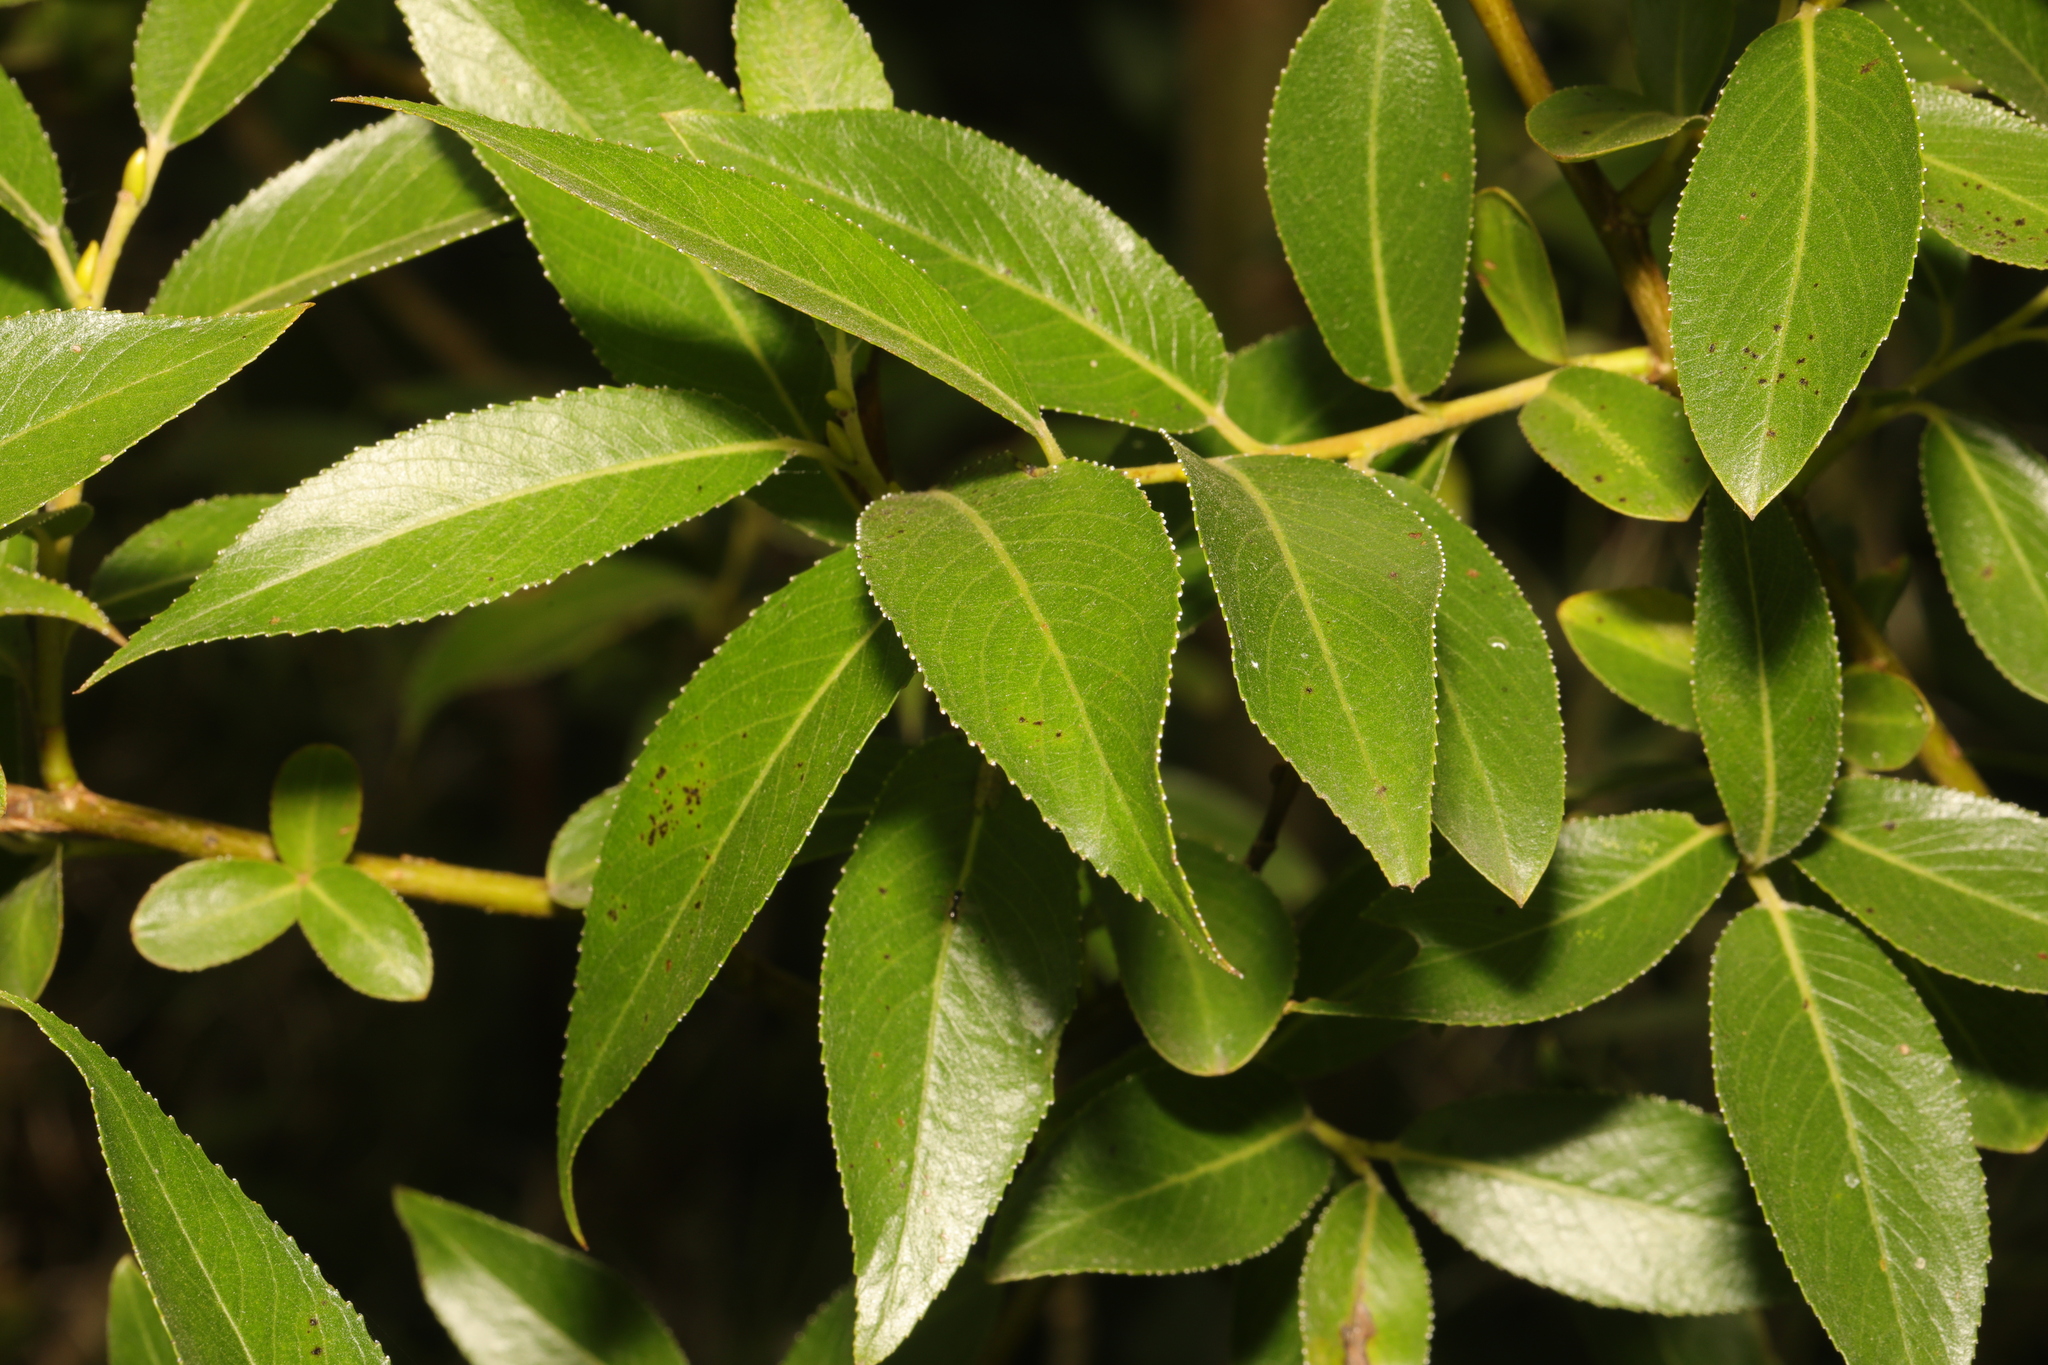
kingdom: Plantae
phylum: Tracheophyta
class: Magnoliopsida
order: Malpighiales
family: Salicaceae
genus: Salix
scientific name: Salix fragilis
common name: Crack willow
